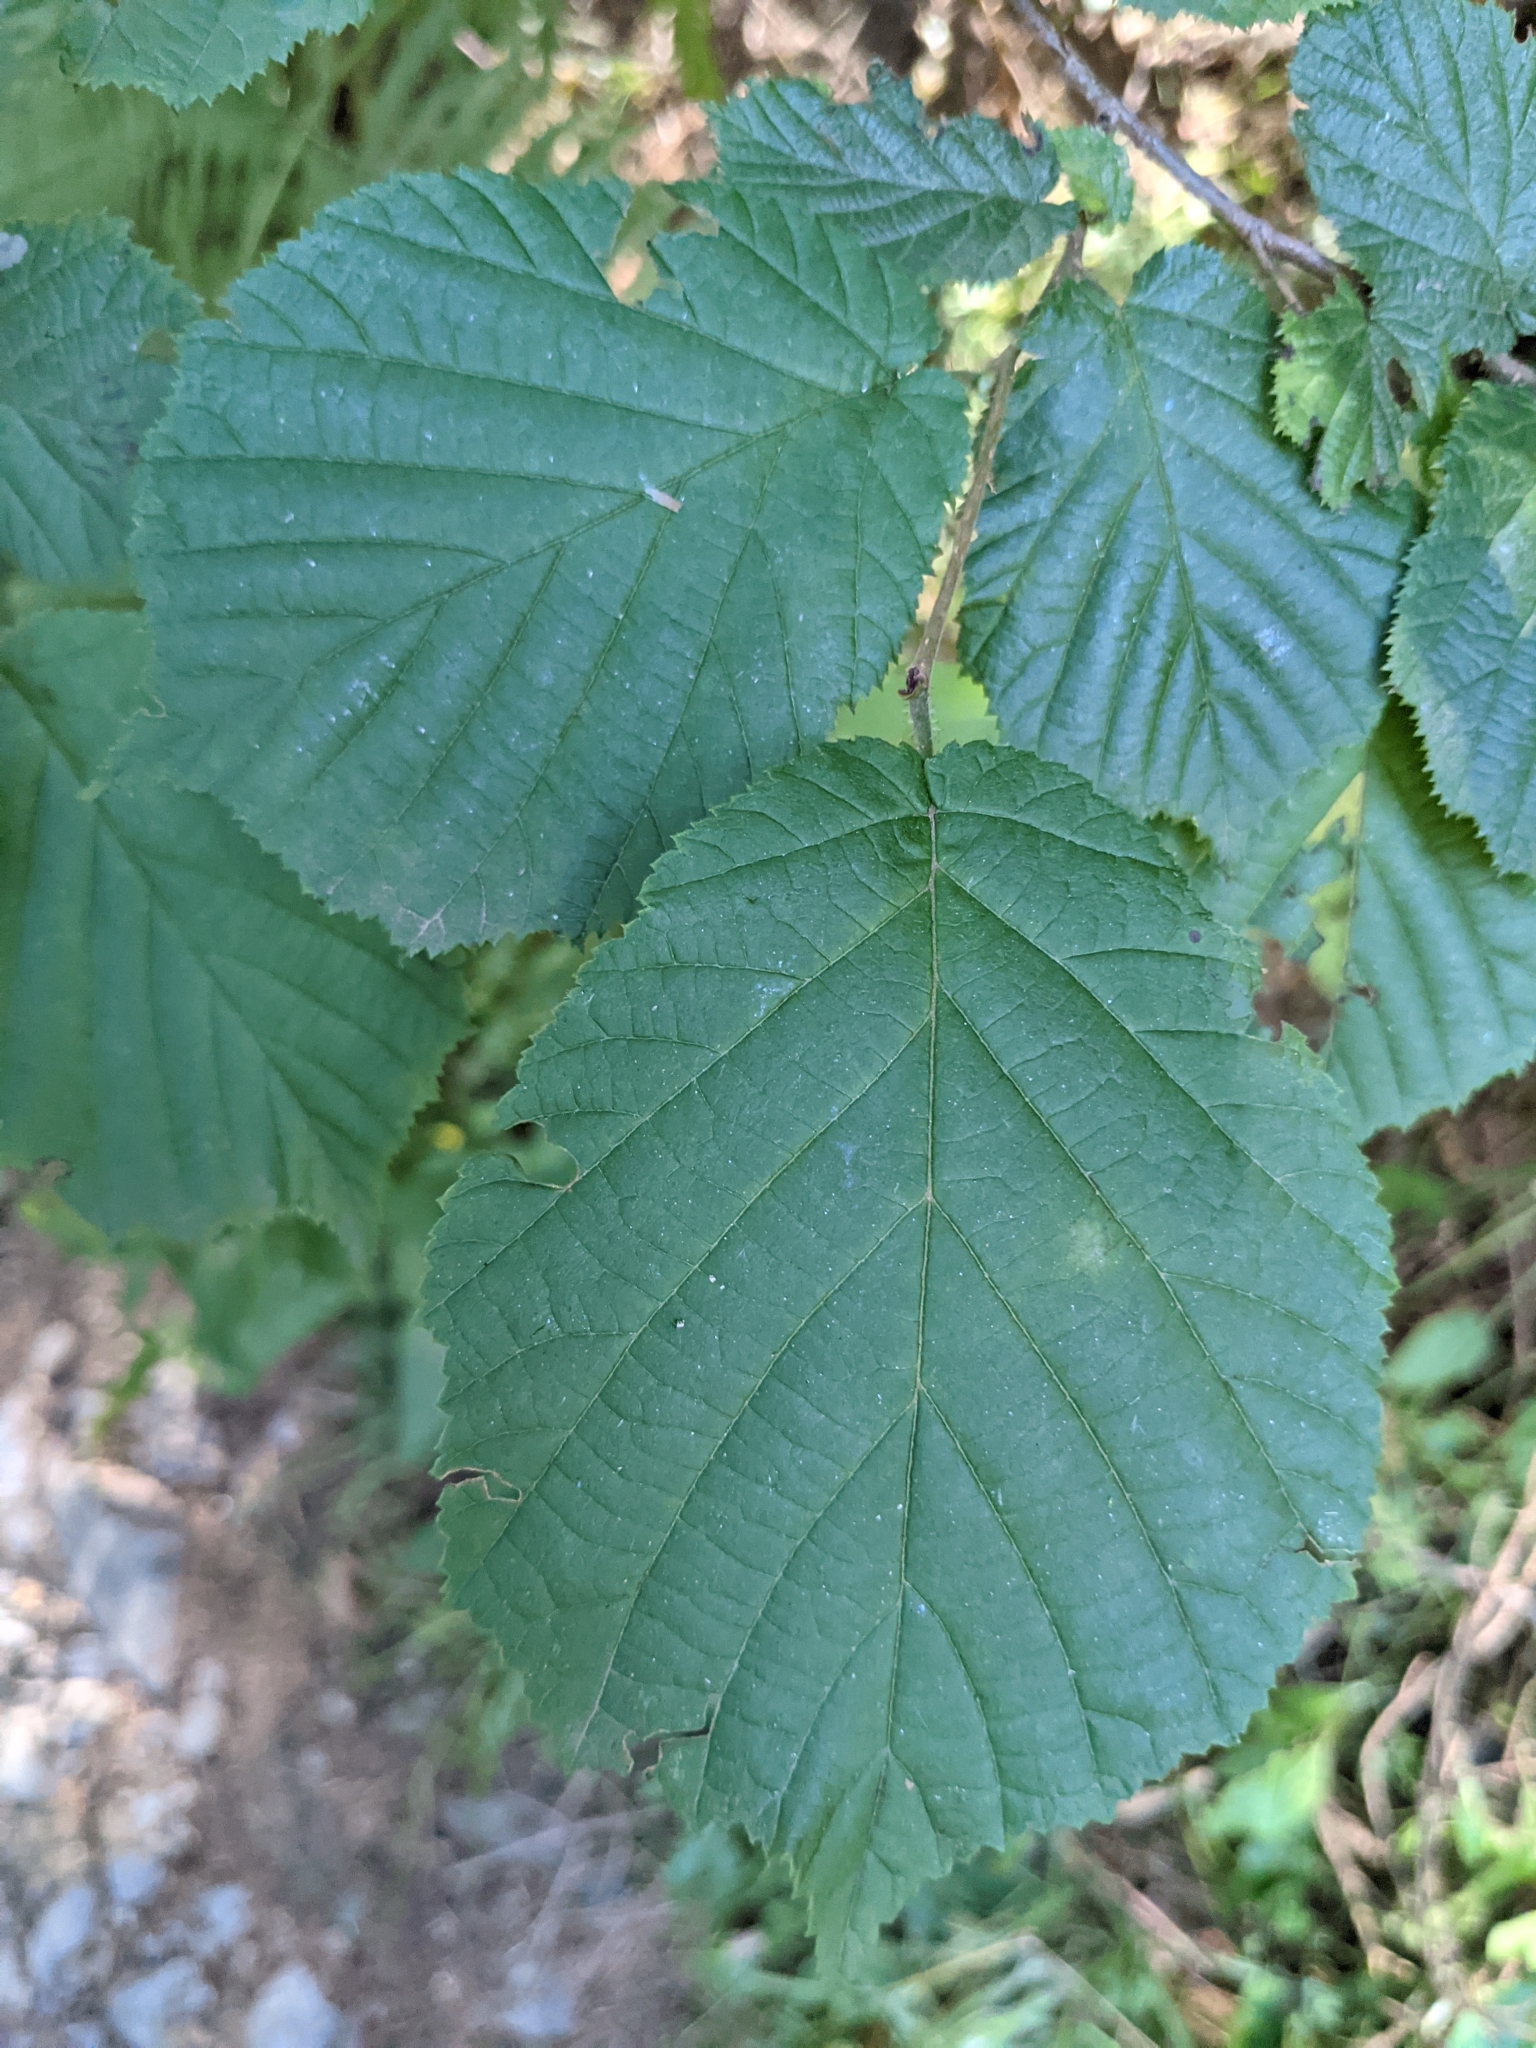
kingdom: Plantae
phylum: Tracheophyta
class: Magnoliopsida
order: Fagales
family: Betulaceae
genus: Corylus
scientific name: Corylus avellana
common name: European hazel
